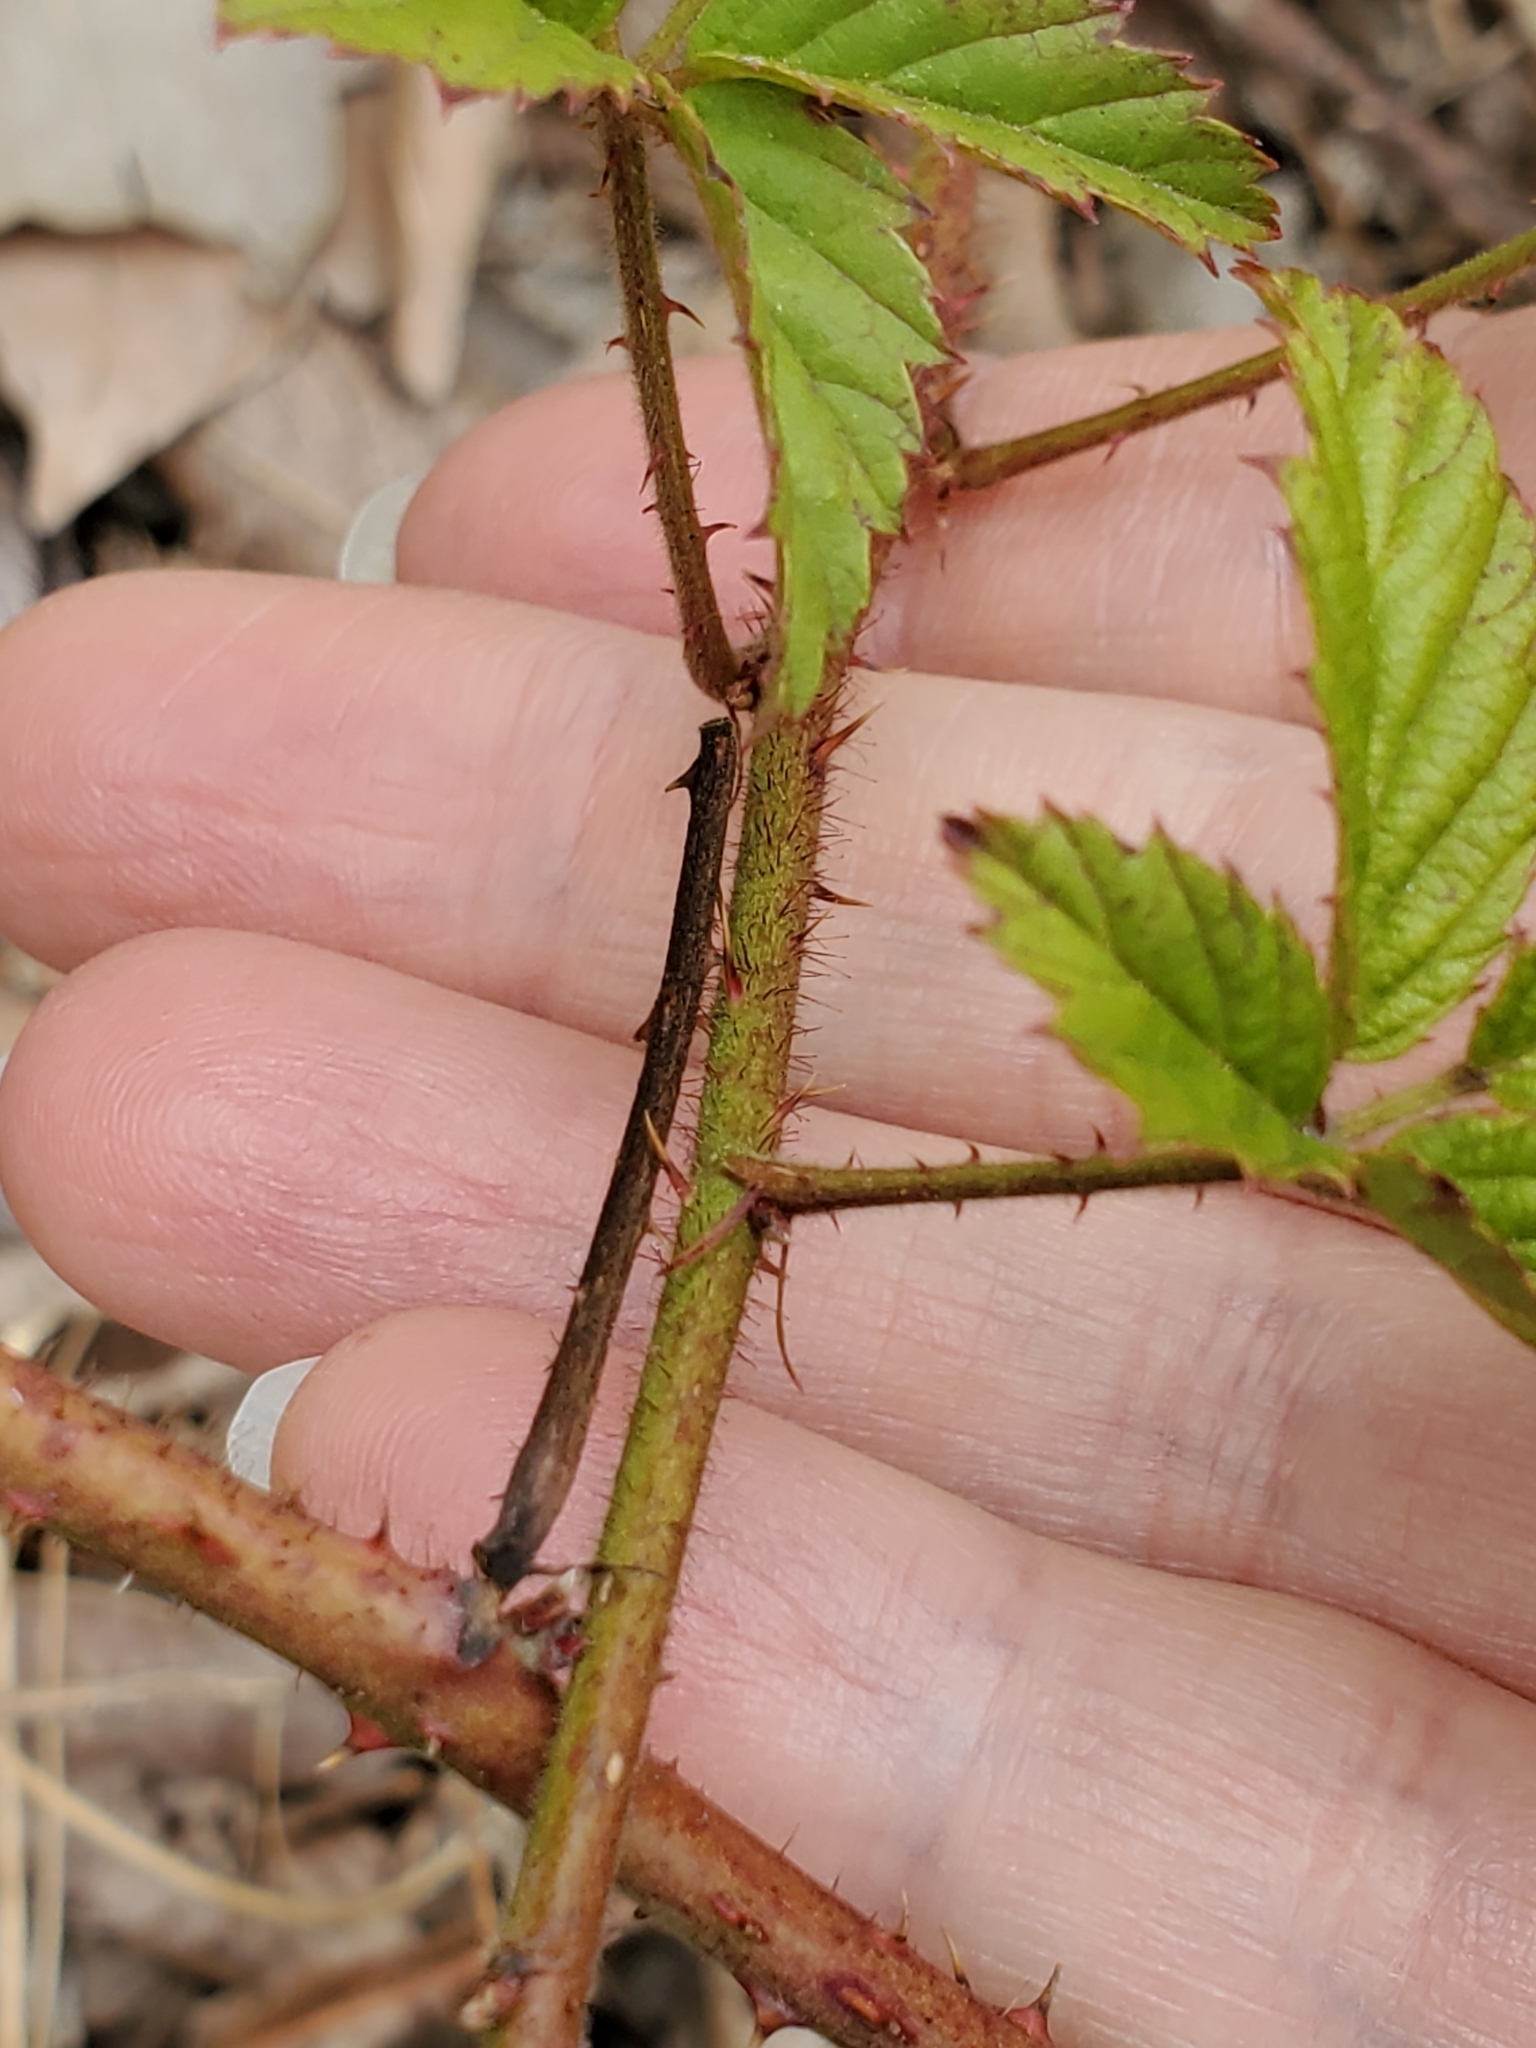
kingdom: Plantae
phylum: Tracheophyta
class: Magnoliopsida
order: Rosales
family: Rosaceae
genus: Rubus
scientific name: Rubus trivialis
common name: Southern dewberry
